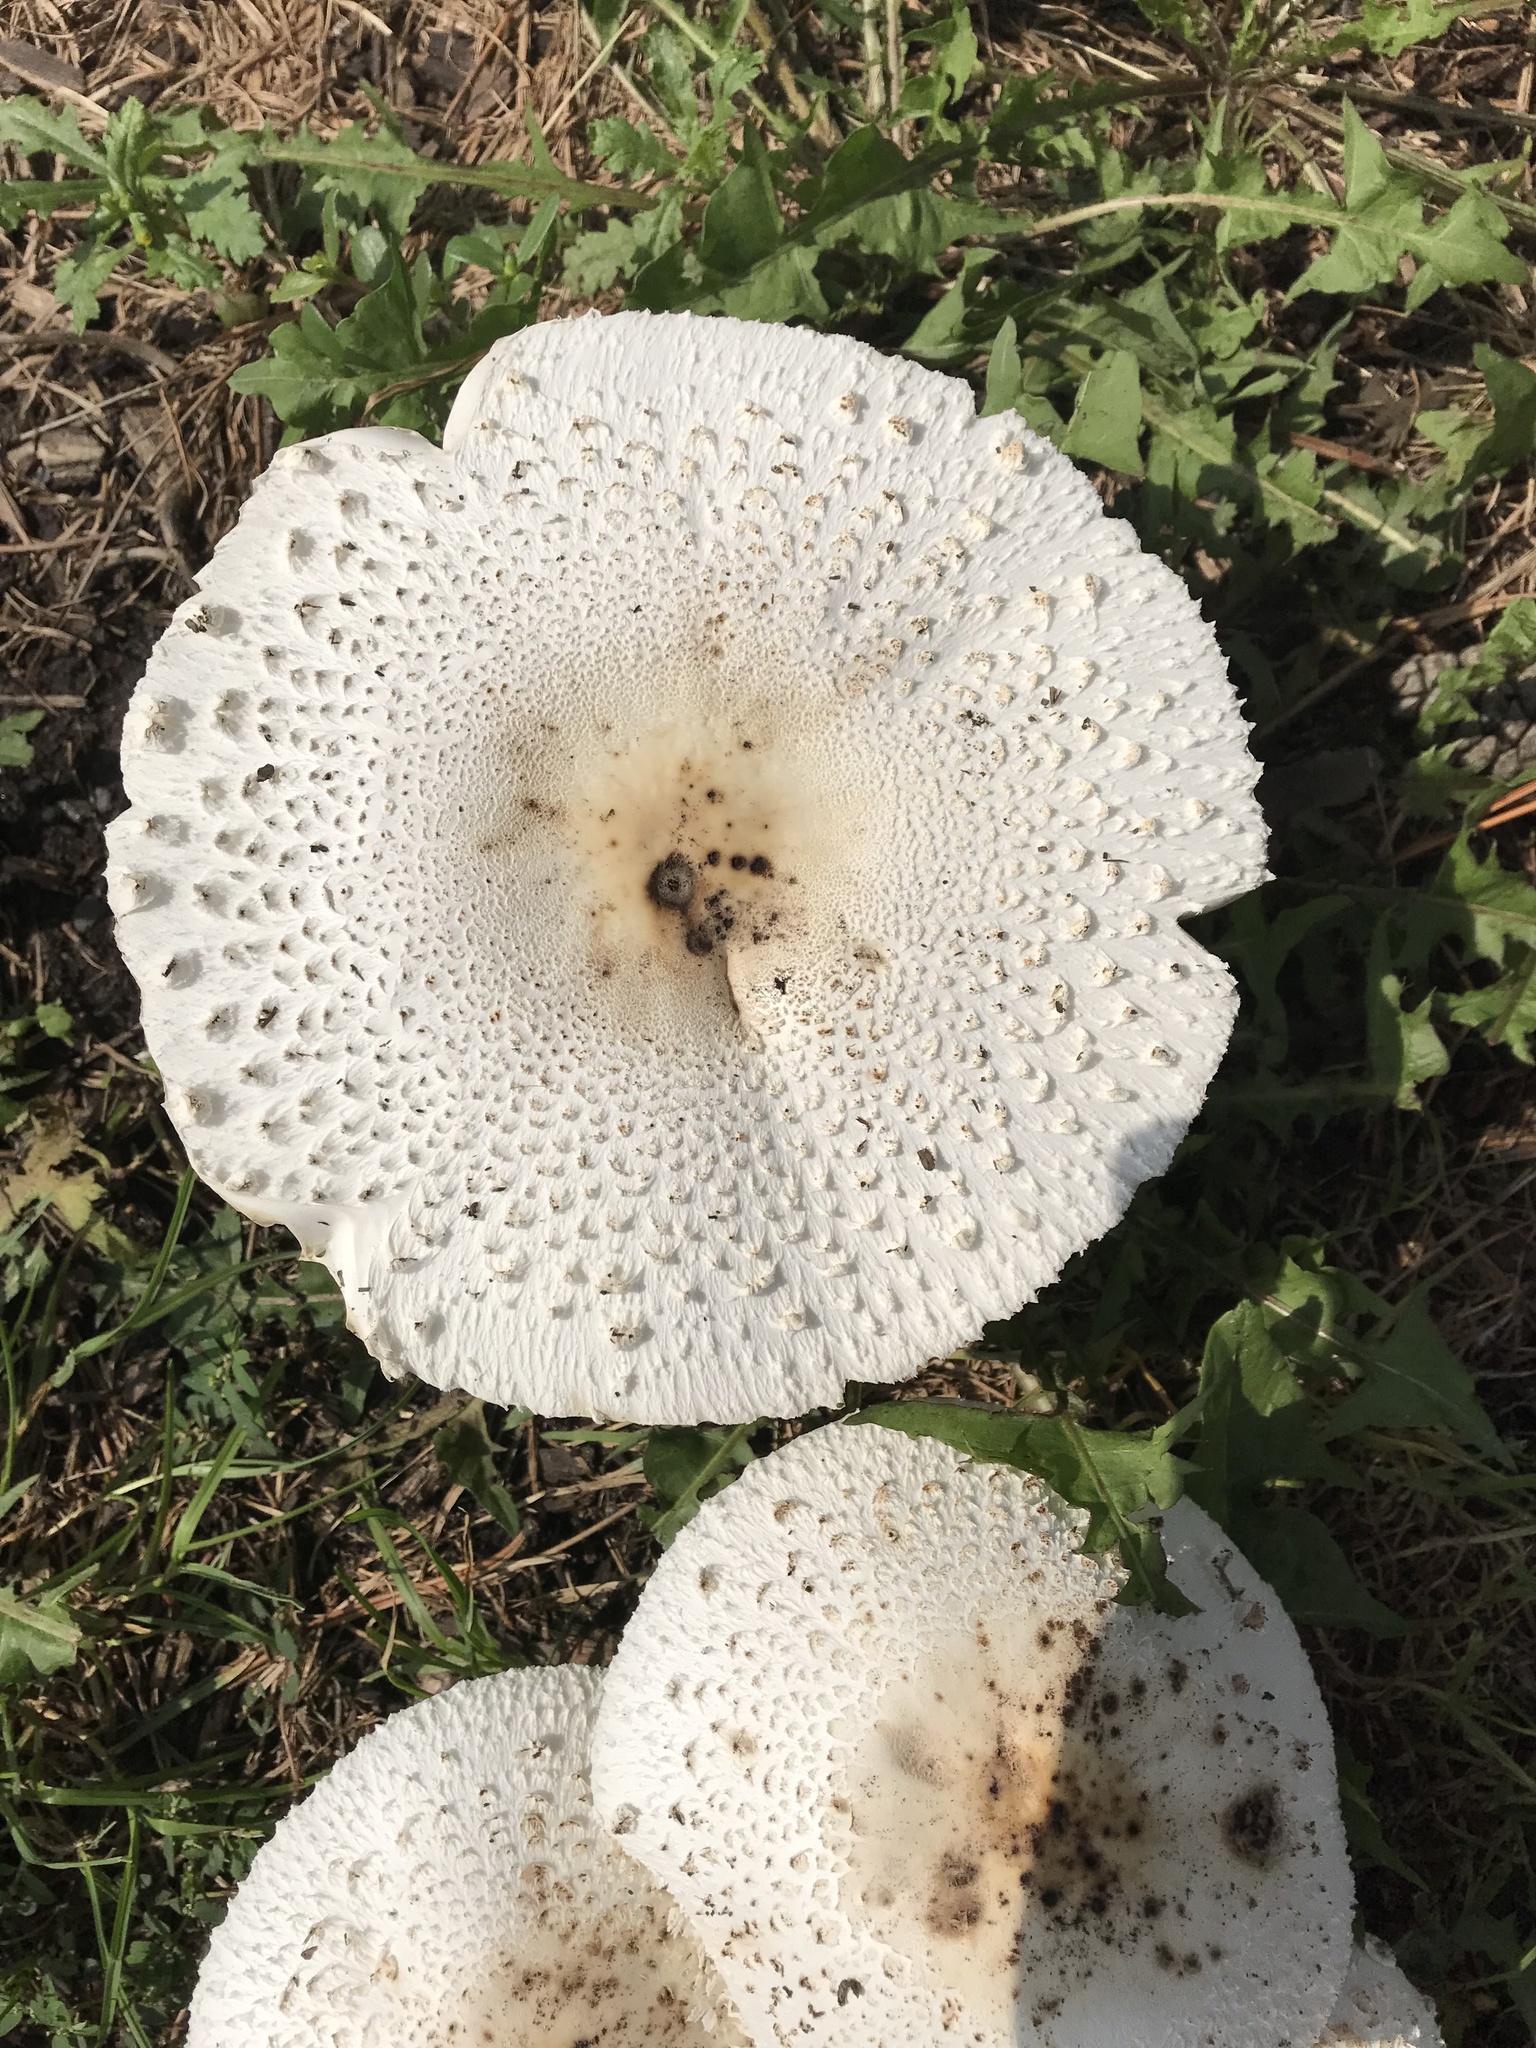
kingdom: Fungi
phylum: Basidiomycota
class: Agaricomycetes
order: Agaricales
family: Agaricaceae
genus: Chlorophyllum
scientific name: Chlorophyllum molybdites
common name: False parasol
